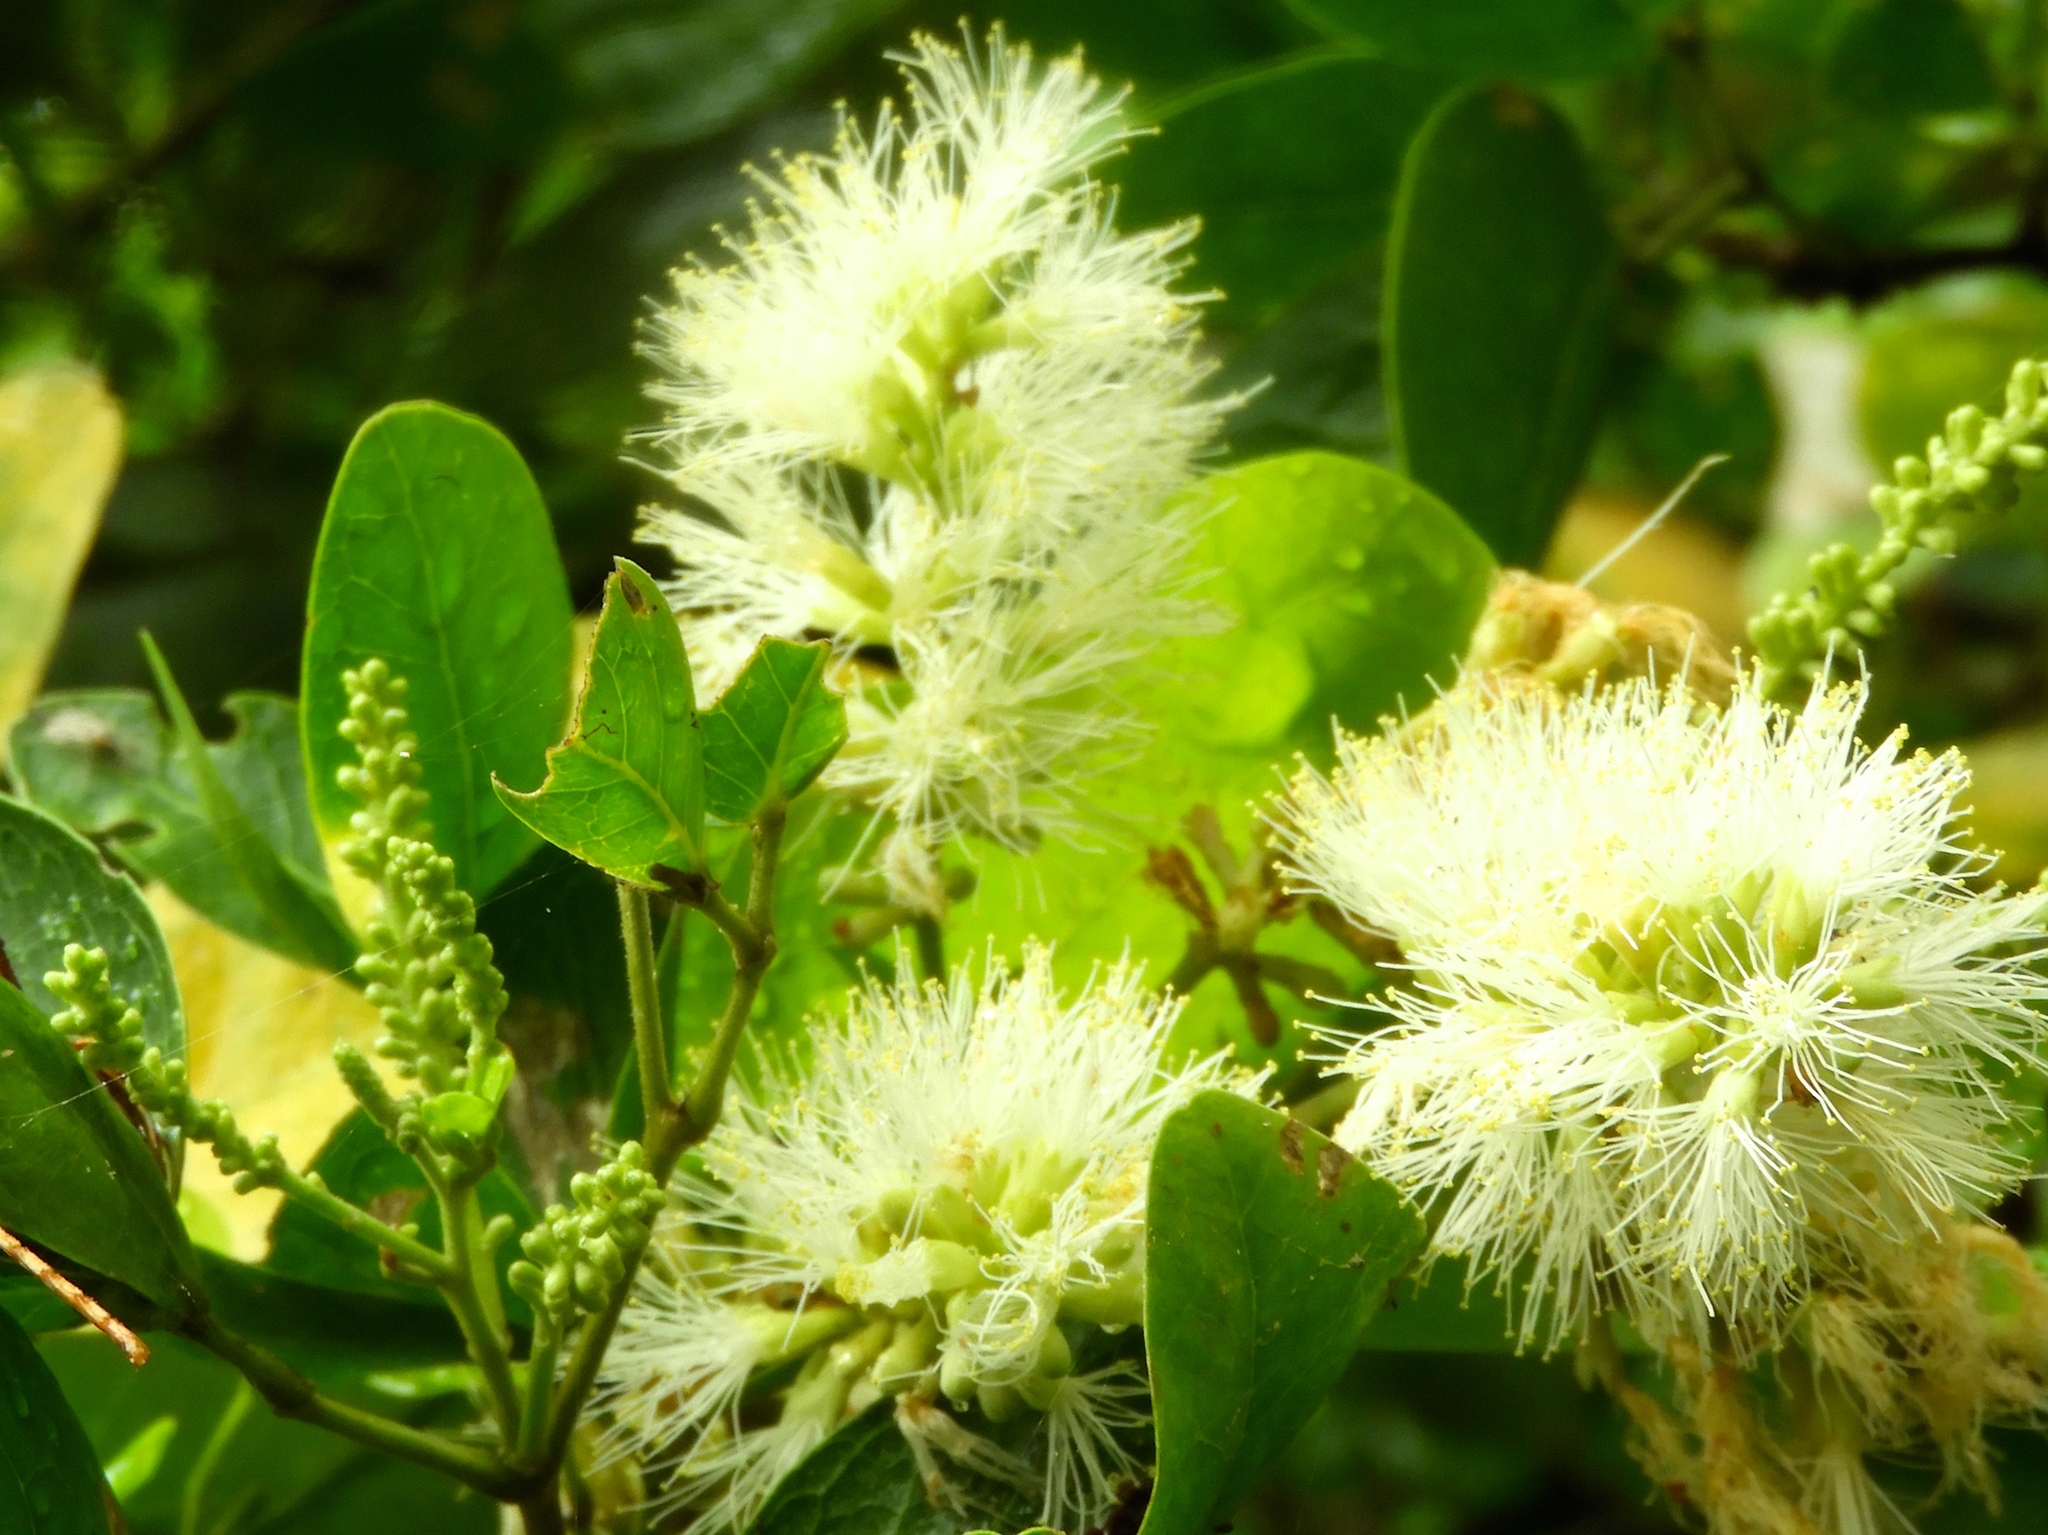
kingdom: Plantae
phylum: Tracheophyta
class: Magnoliopsida
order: Fabales
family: Fabaceae
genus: Pithecellobium
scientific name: Pithecellobium lanceolatum
